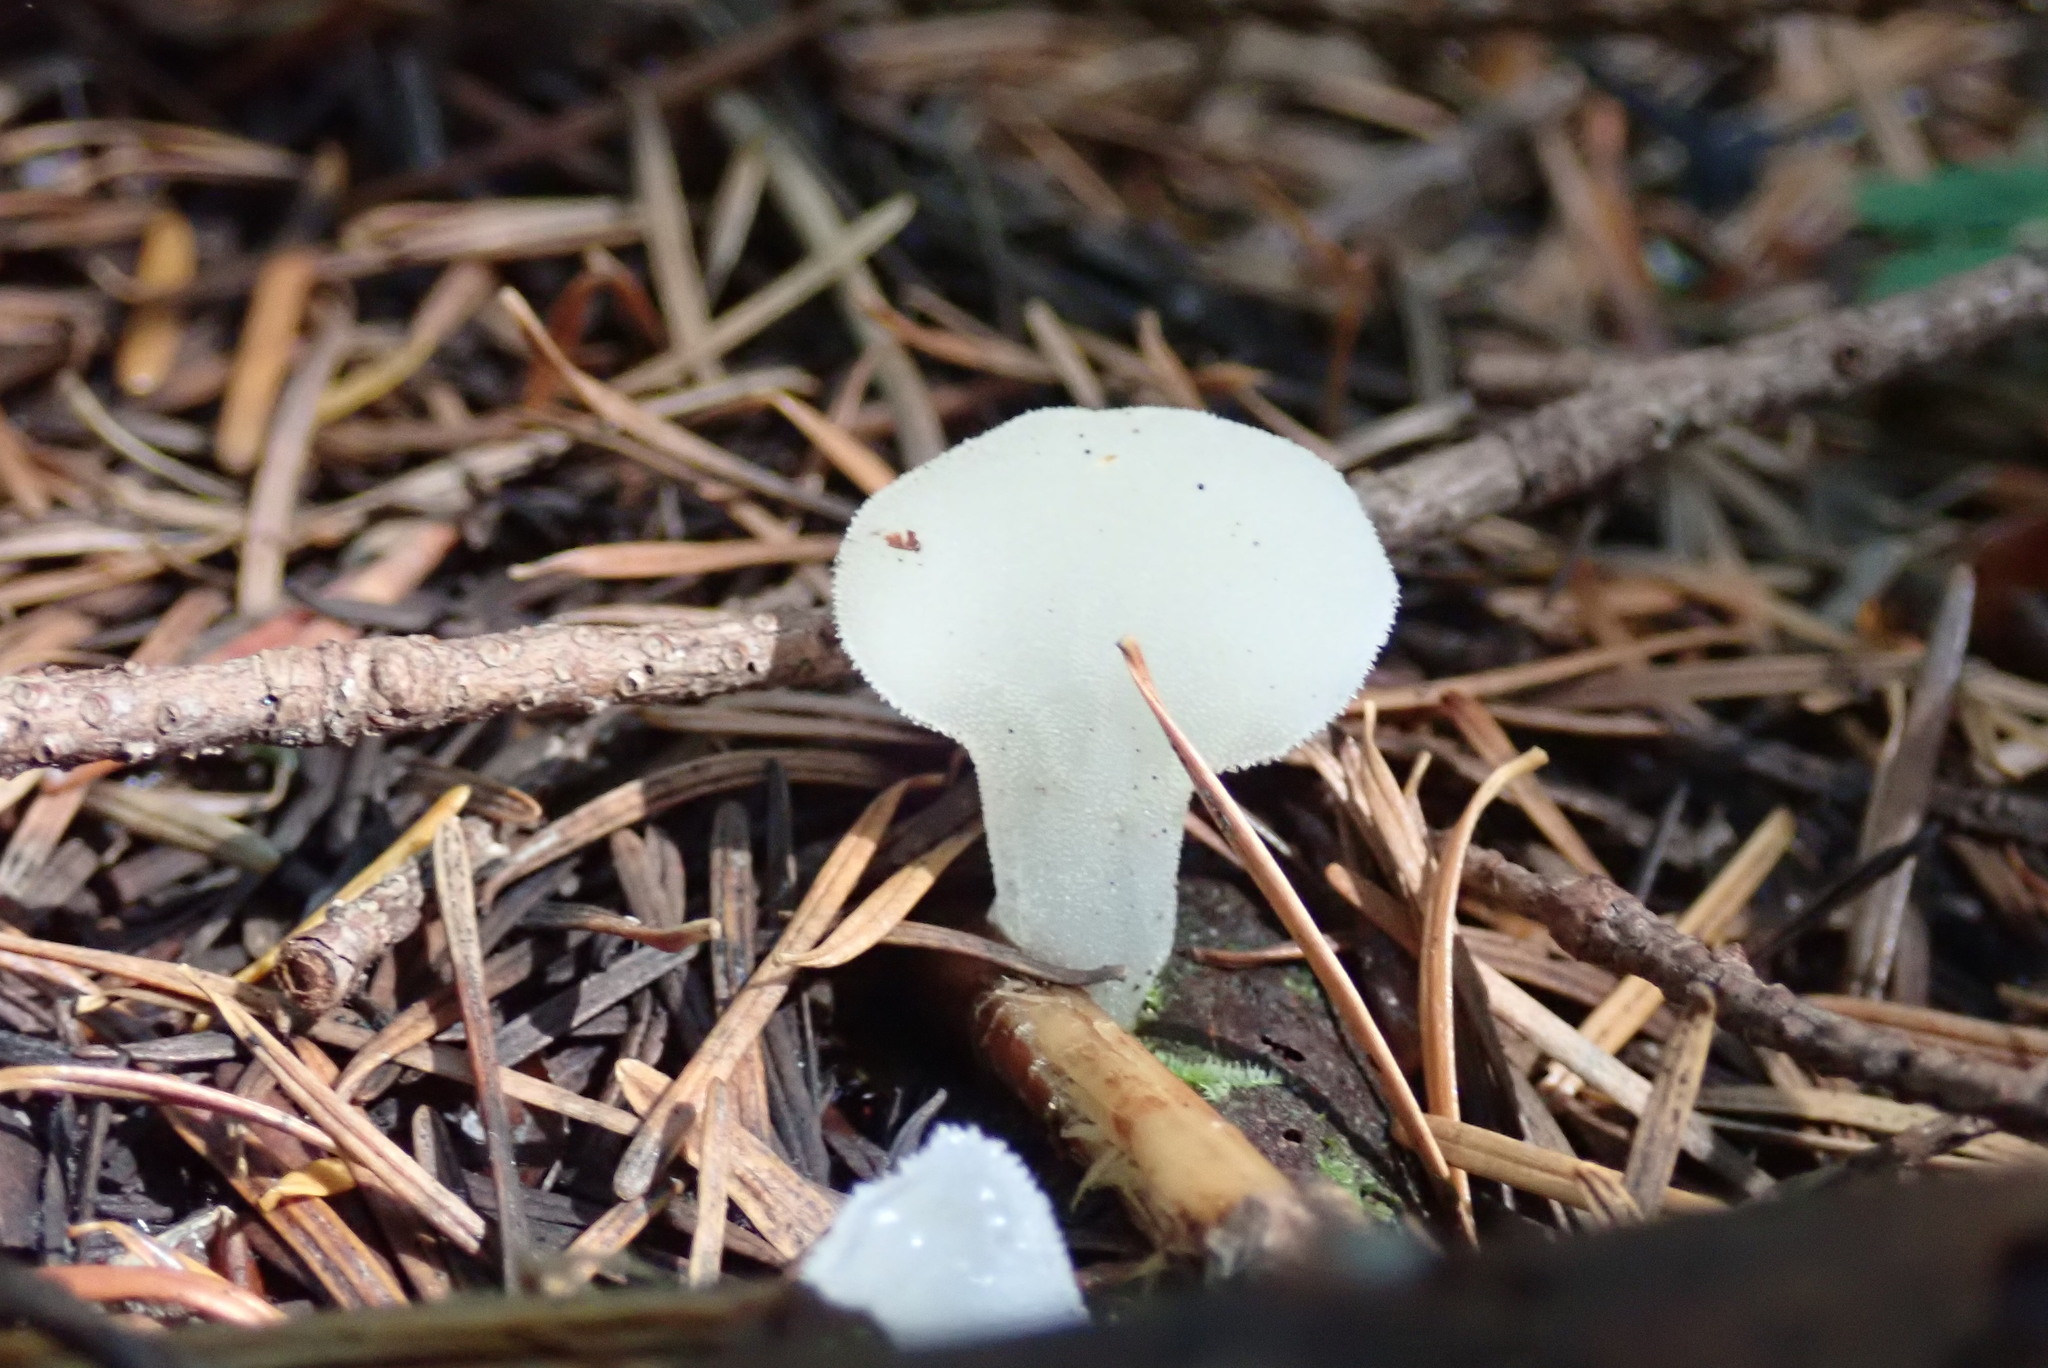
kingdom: Fungi
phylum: Basidiomycota
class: Agaricomycetes
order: Auriculariales
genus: Pseudohydnum
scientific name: Pseudohydnum gelatinosum
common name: Jelly tongue
